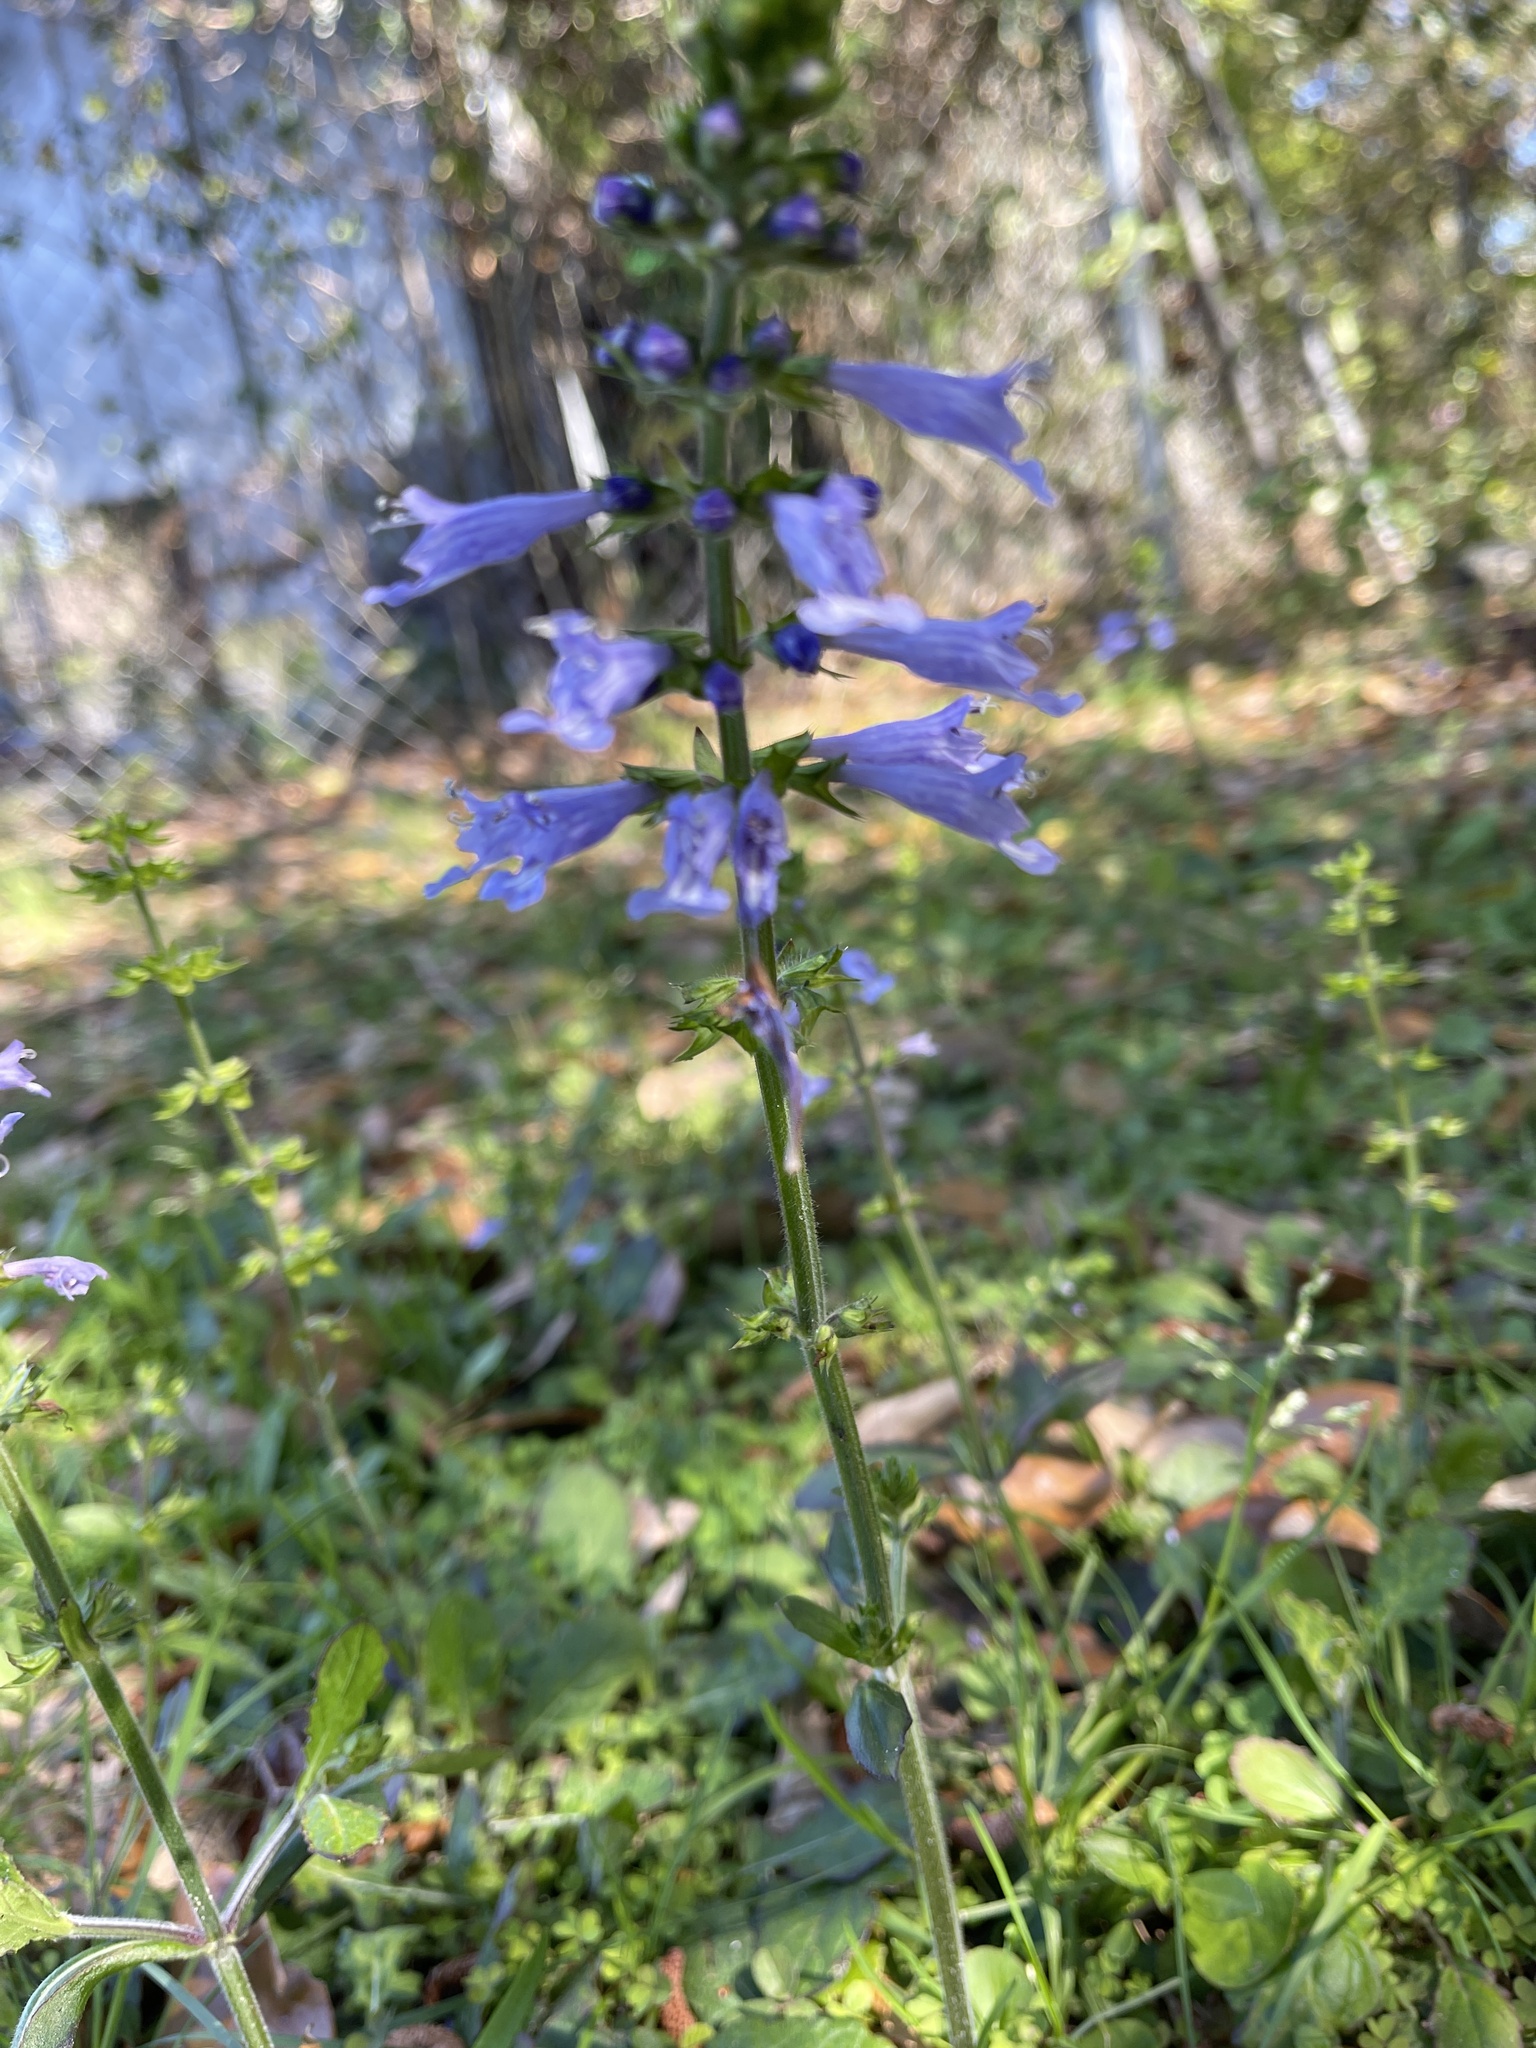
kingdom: Plantae
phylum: Tracheophyta
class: Magnoliopsida
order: Lamiales
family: Lamiaceae
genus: Salvia
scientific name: Salvia lyrata
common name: Cancerweed
